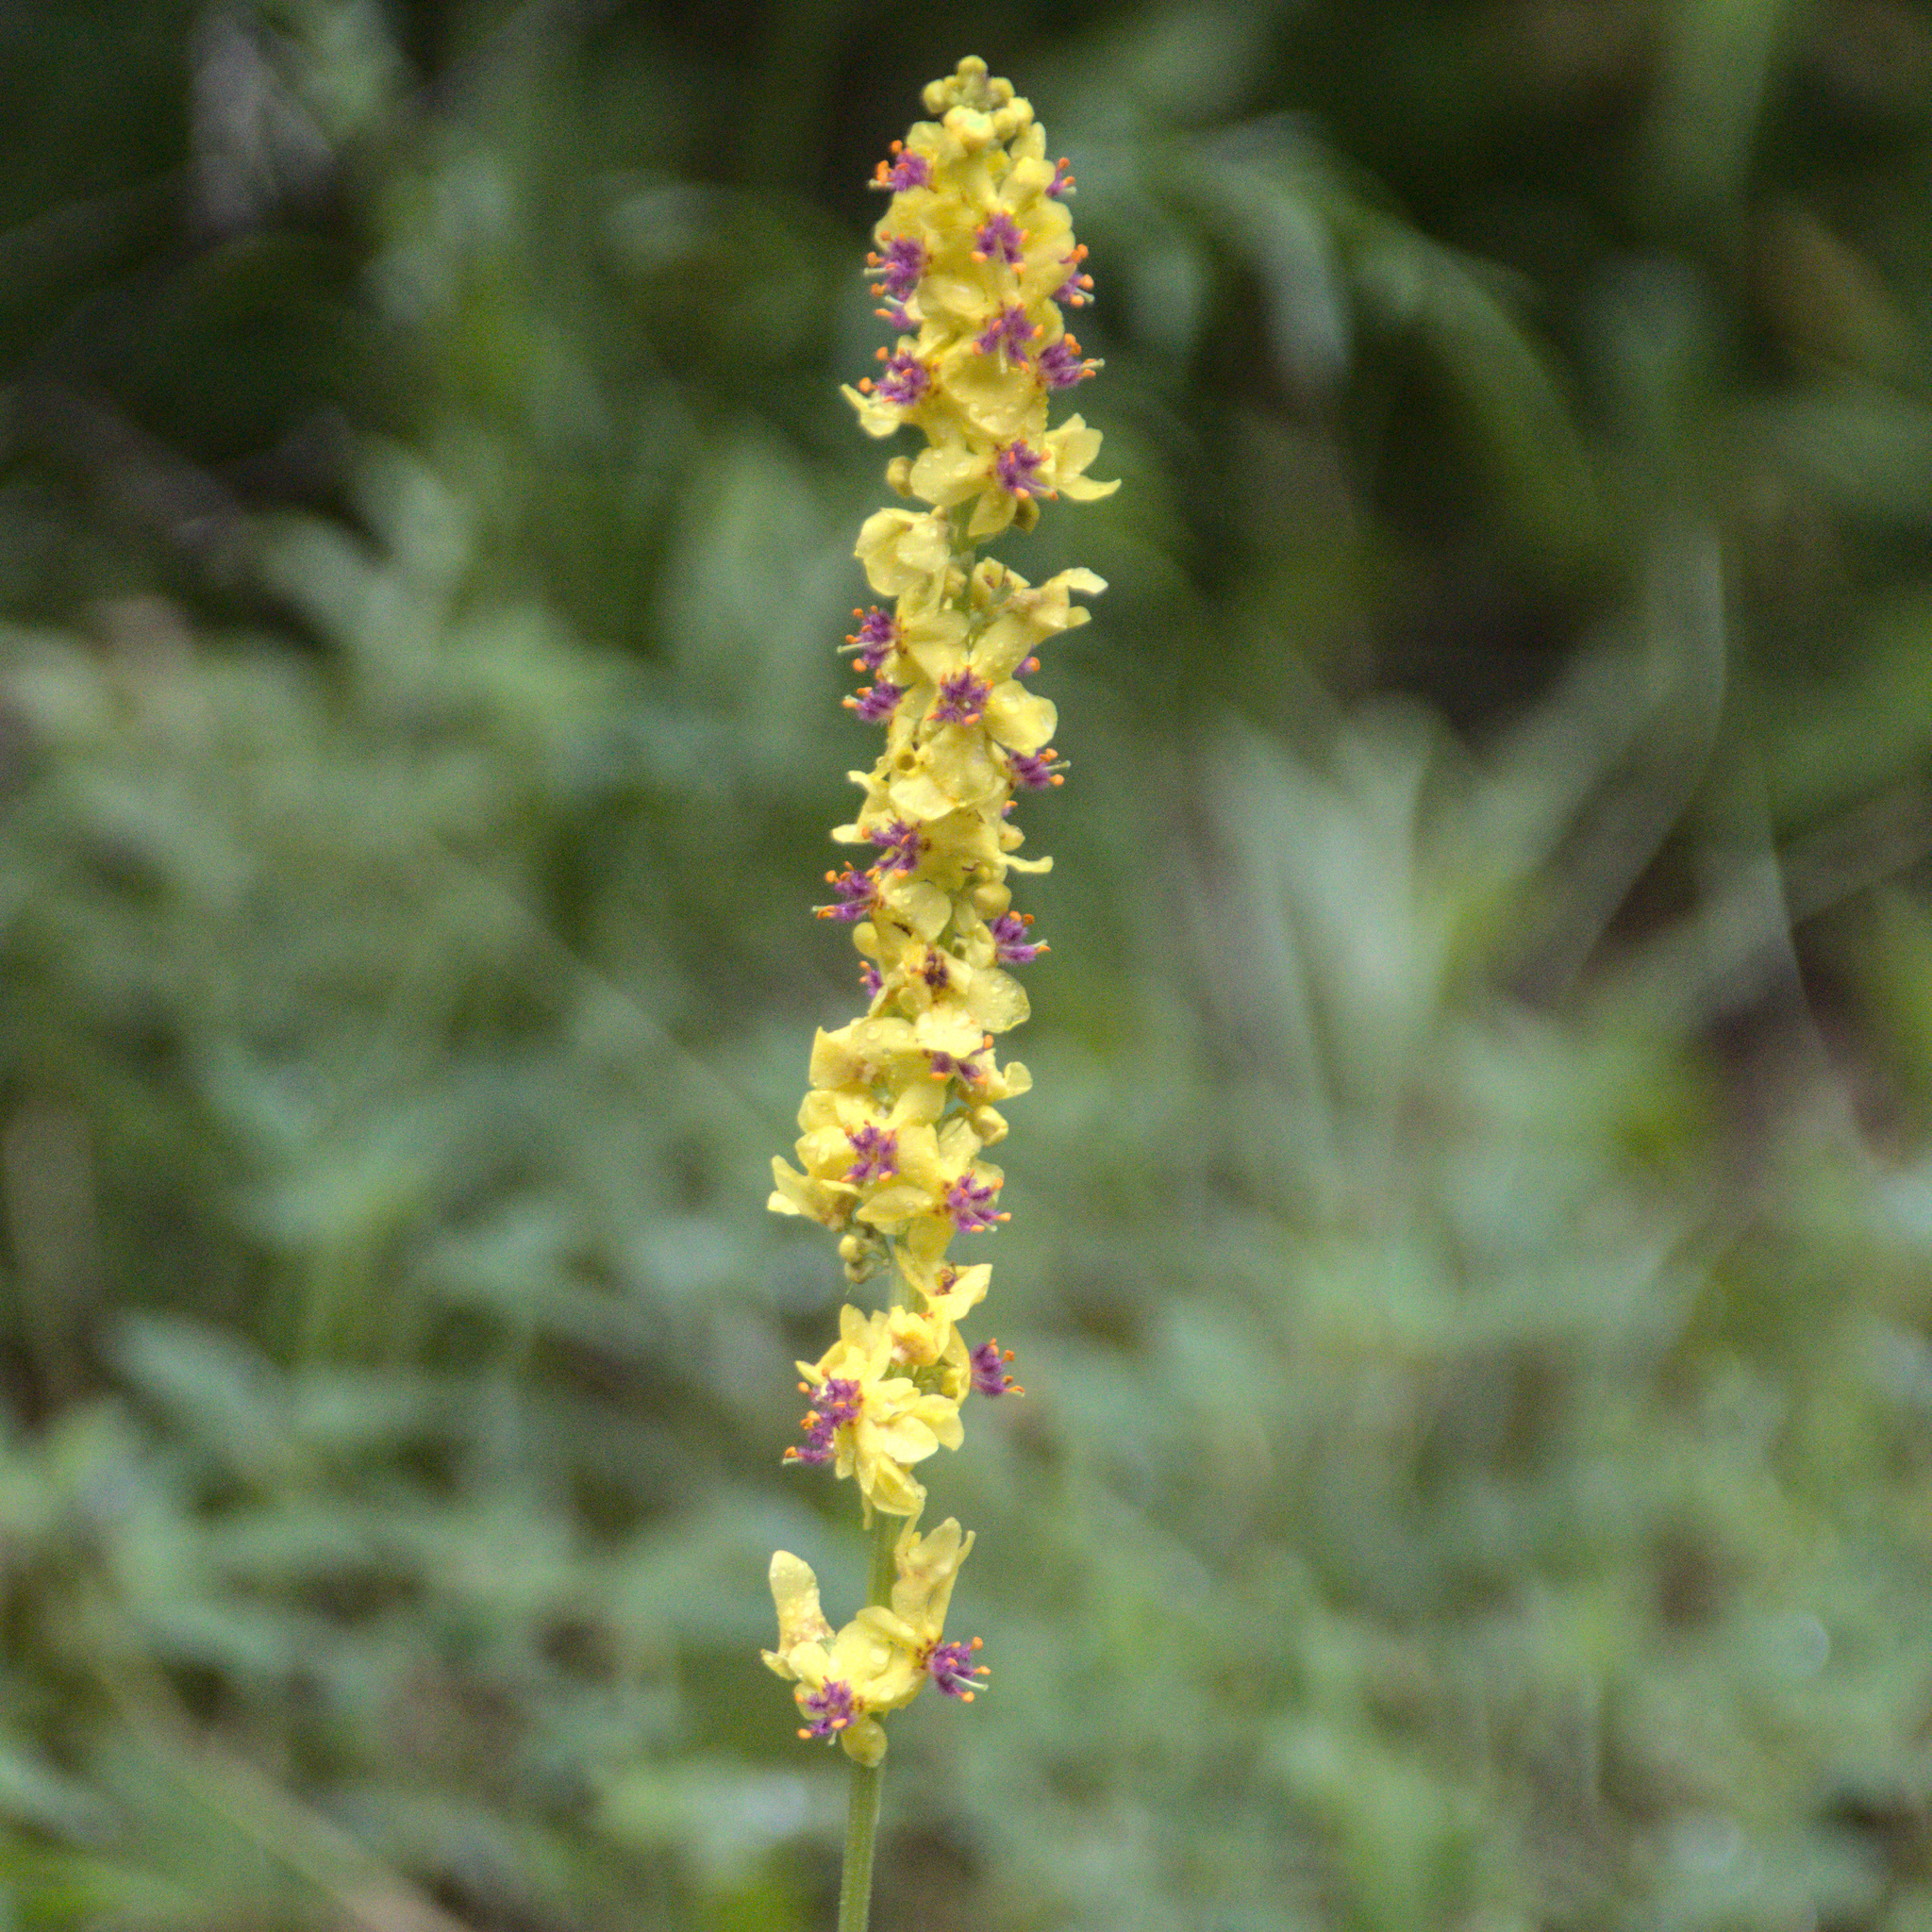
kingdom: Plantae
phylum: Tracheophyta
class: Magnoliopsida
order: Lamiales
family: Scrophulariaceae
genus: Verbascum
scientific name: Verbascum nigrum
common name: Dark mullein
